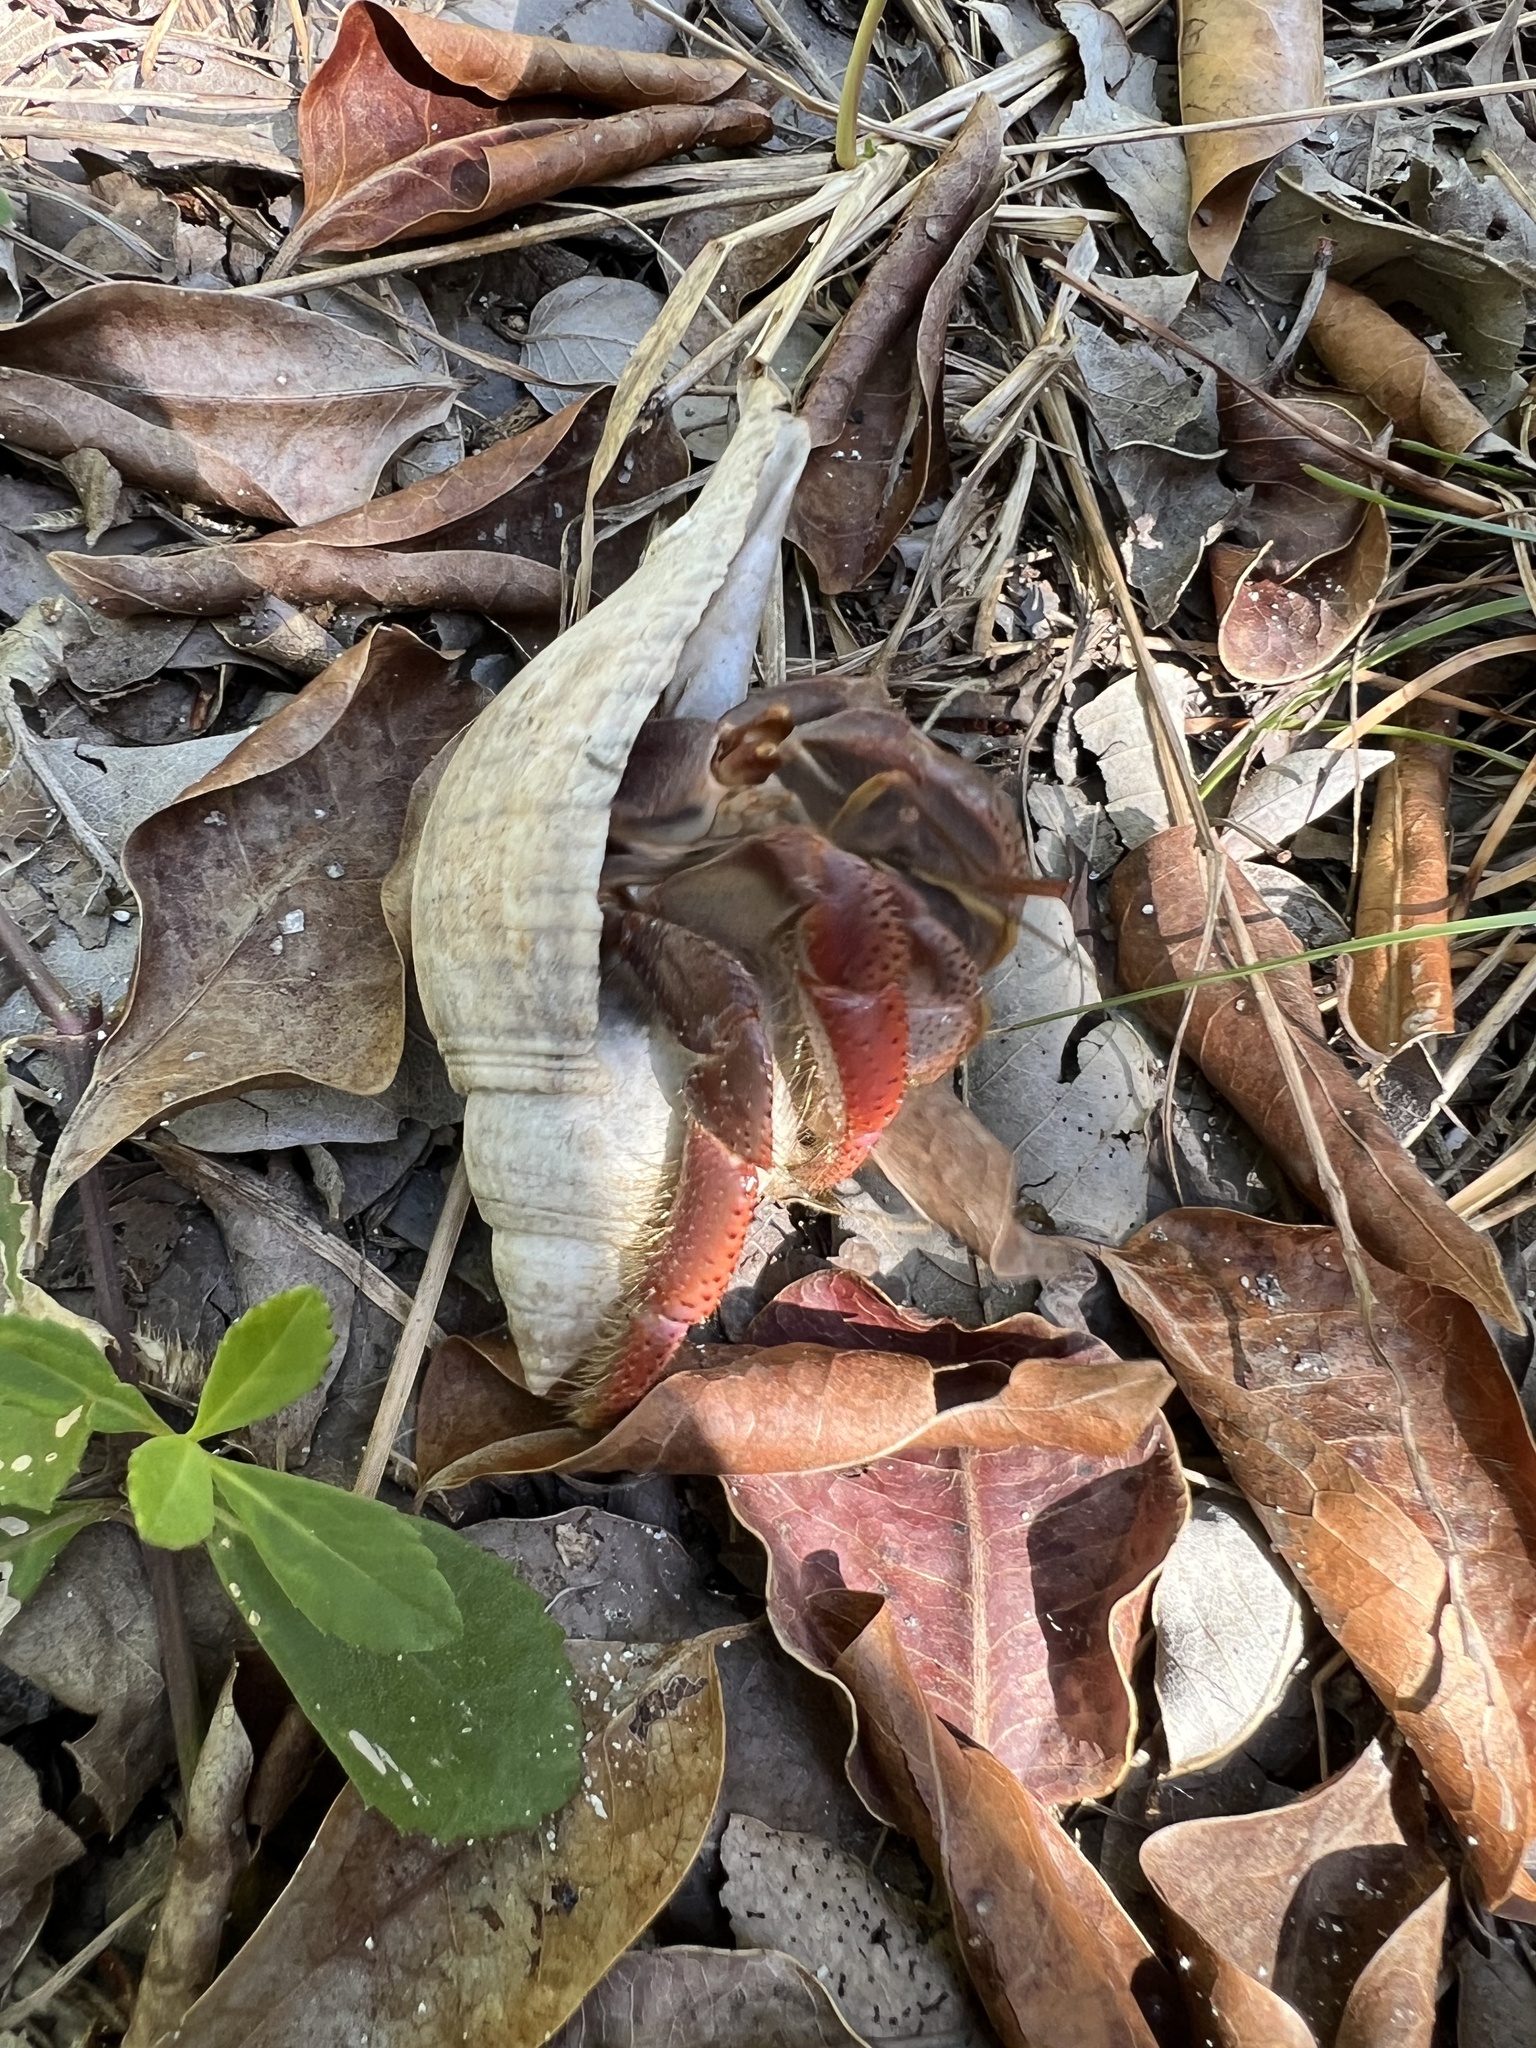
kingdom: Animalia
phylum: Arthropoda
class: Malacostraca
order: Decapoda
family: Coenobitidae
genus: Coenobita
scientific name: Coenobita clypeatus
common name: Caribbean hermit crab
